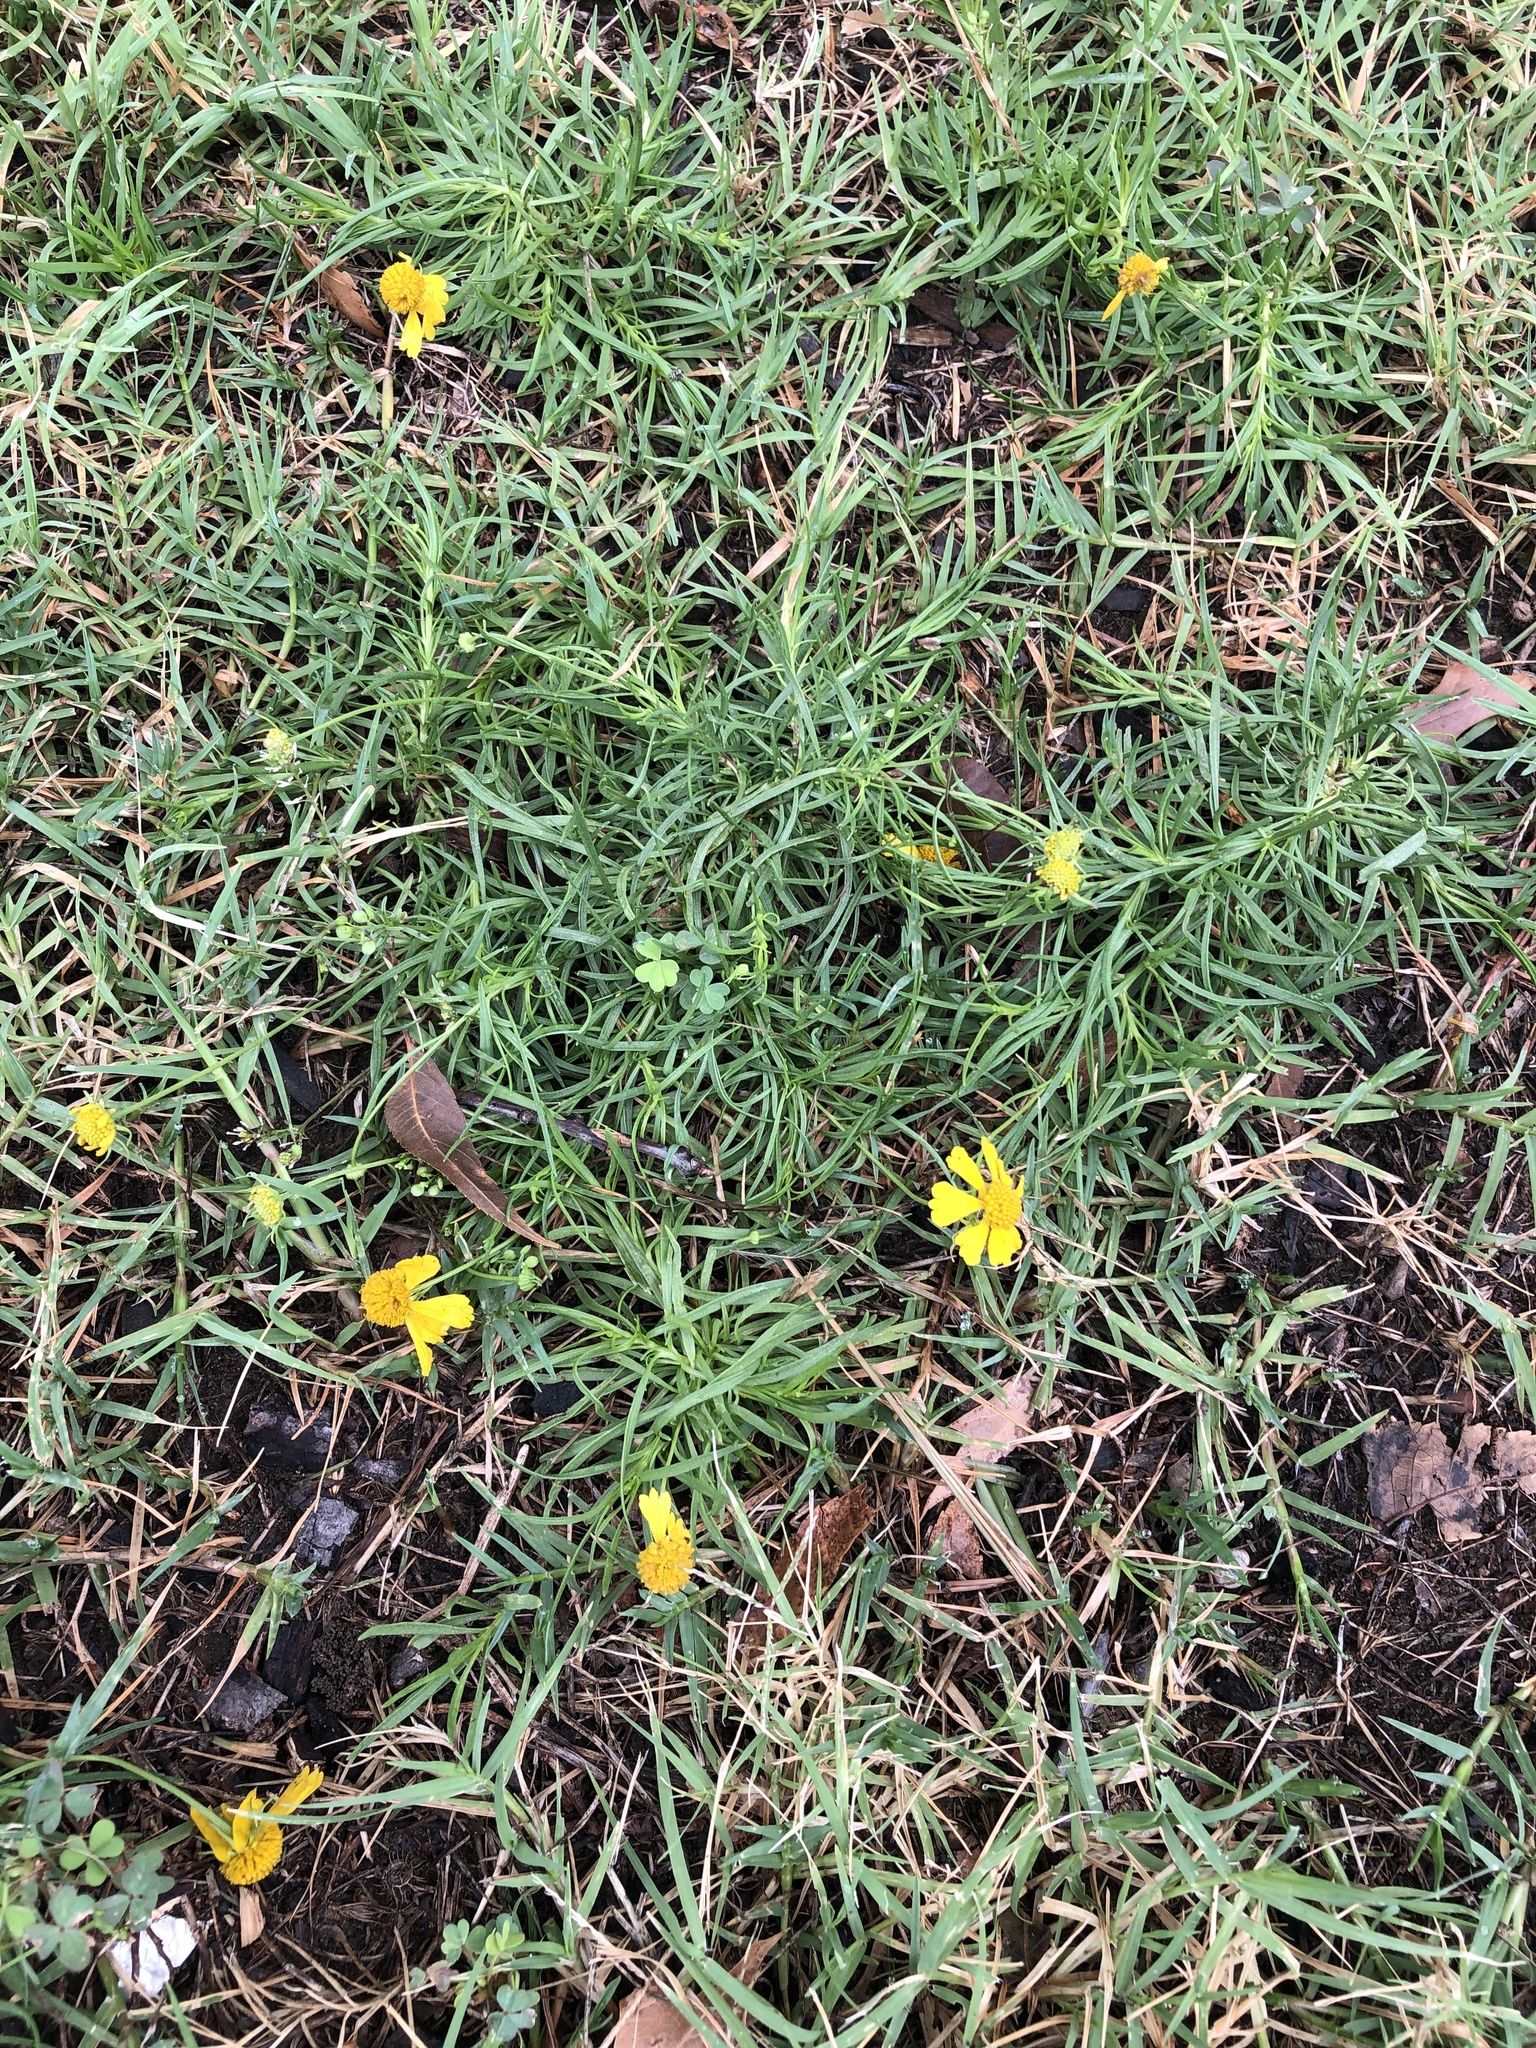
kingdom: Plantae
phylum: Tracheophyta
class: Magnoliopsida
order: Asterales
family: Asteraceae
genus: Helenium
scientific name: Helenium amarum
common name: Bitter sneezeweed
